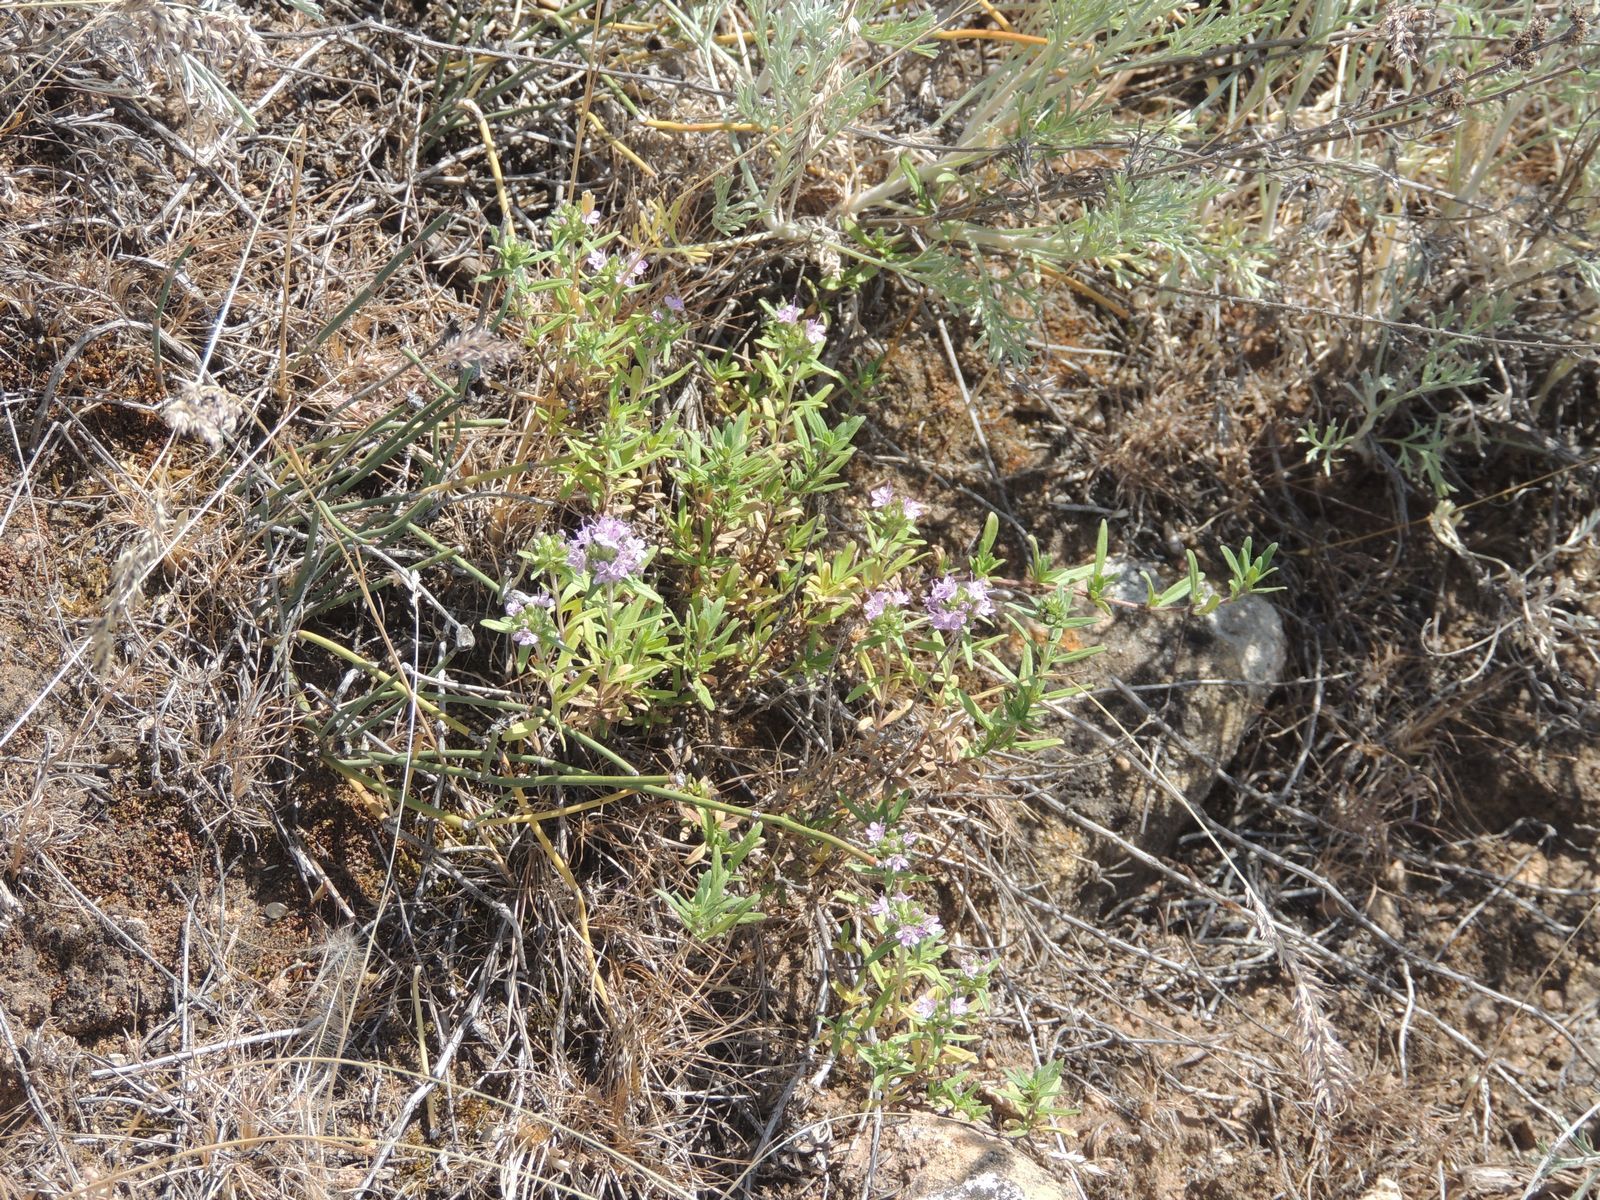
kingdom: Plantae
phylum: Tracheophyta
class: Magnoliopsida
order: Lamiales
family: Lamiaceae
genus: Thymus
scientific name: Thymus kirgisorum
